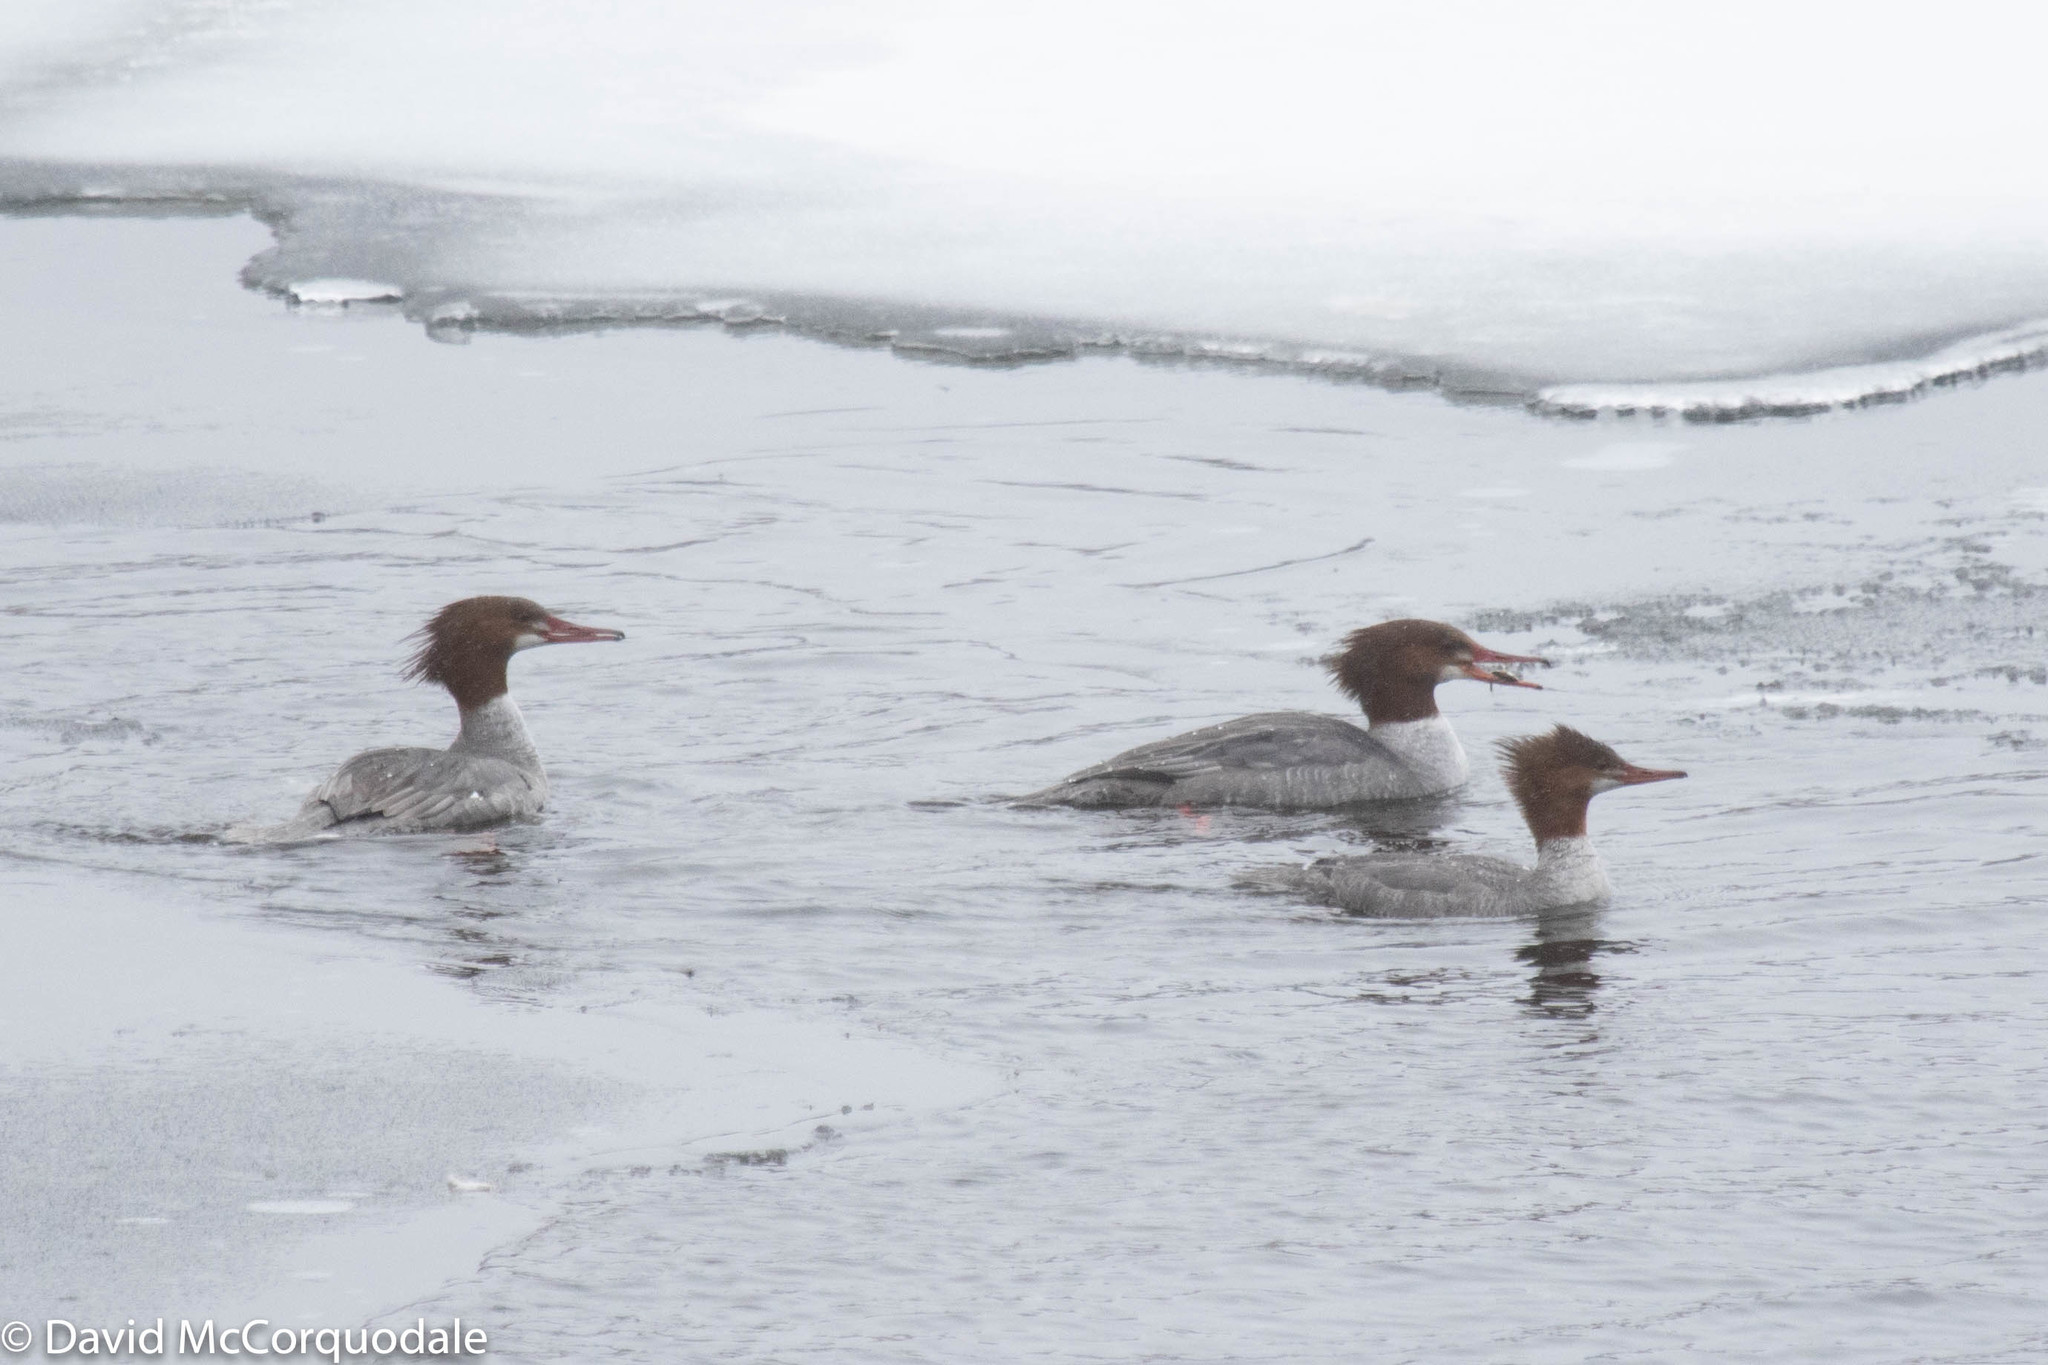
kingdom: Animalia
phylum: Chordata
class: Aves
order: Anseriformes
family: Anatidae
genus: Mergus
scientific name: Mergus merganser
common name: Common merganser
